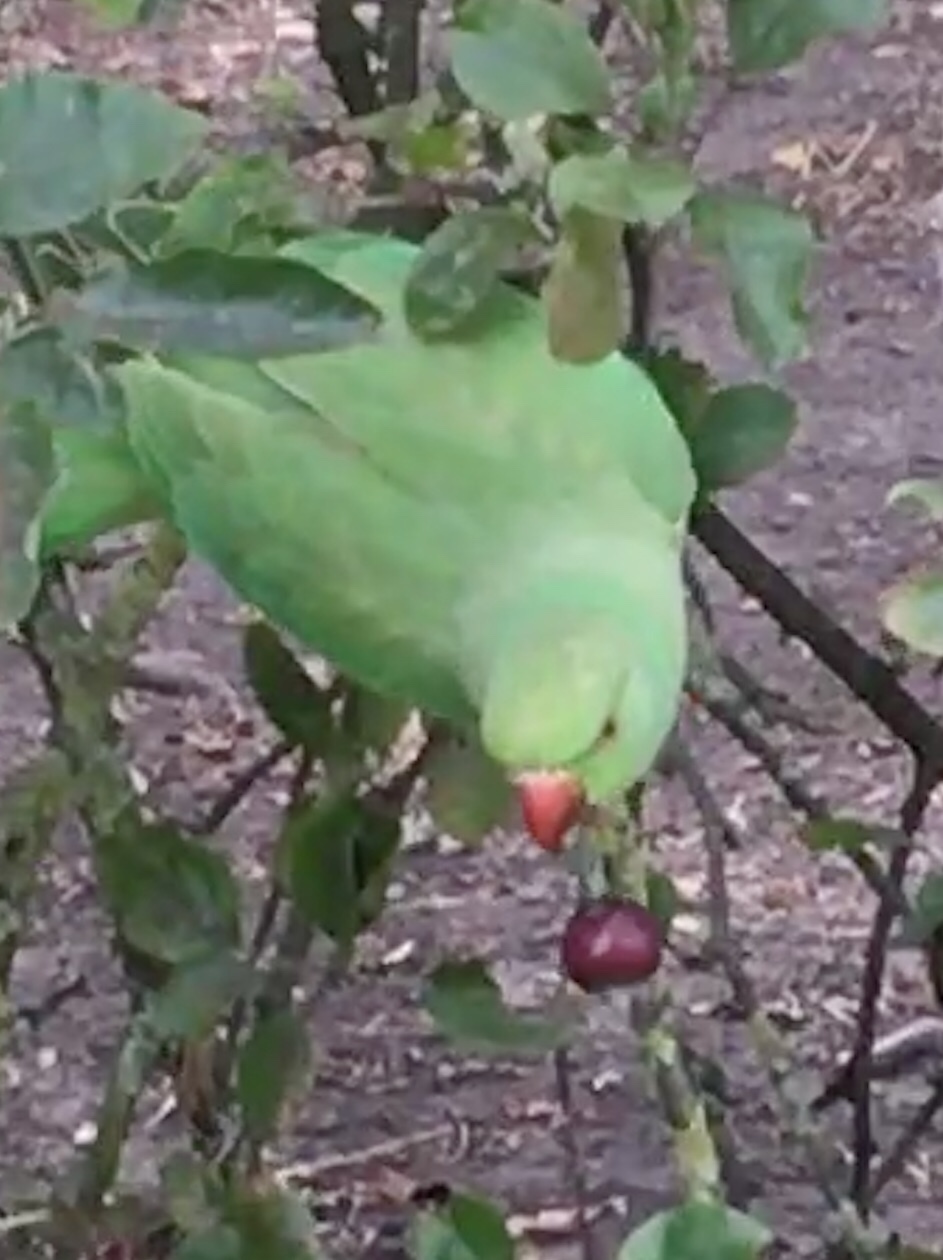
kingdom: Animalia
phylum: Chordata
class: Aves
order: Psittaciformes
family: Psittacidae
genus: Psittacula
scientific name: Psittacula krameri
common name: Rose-ringed parakeet
